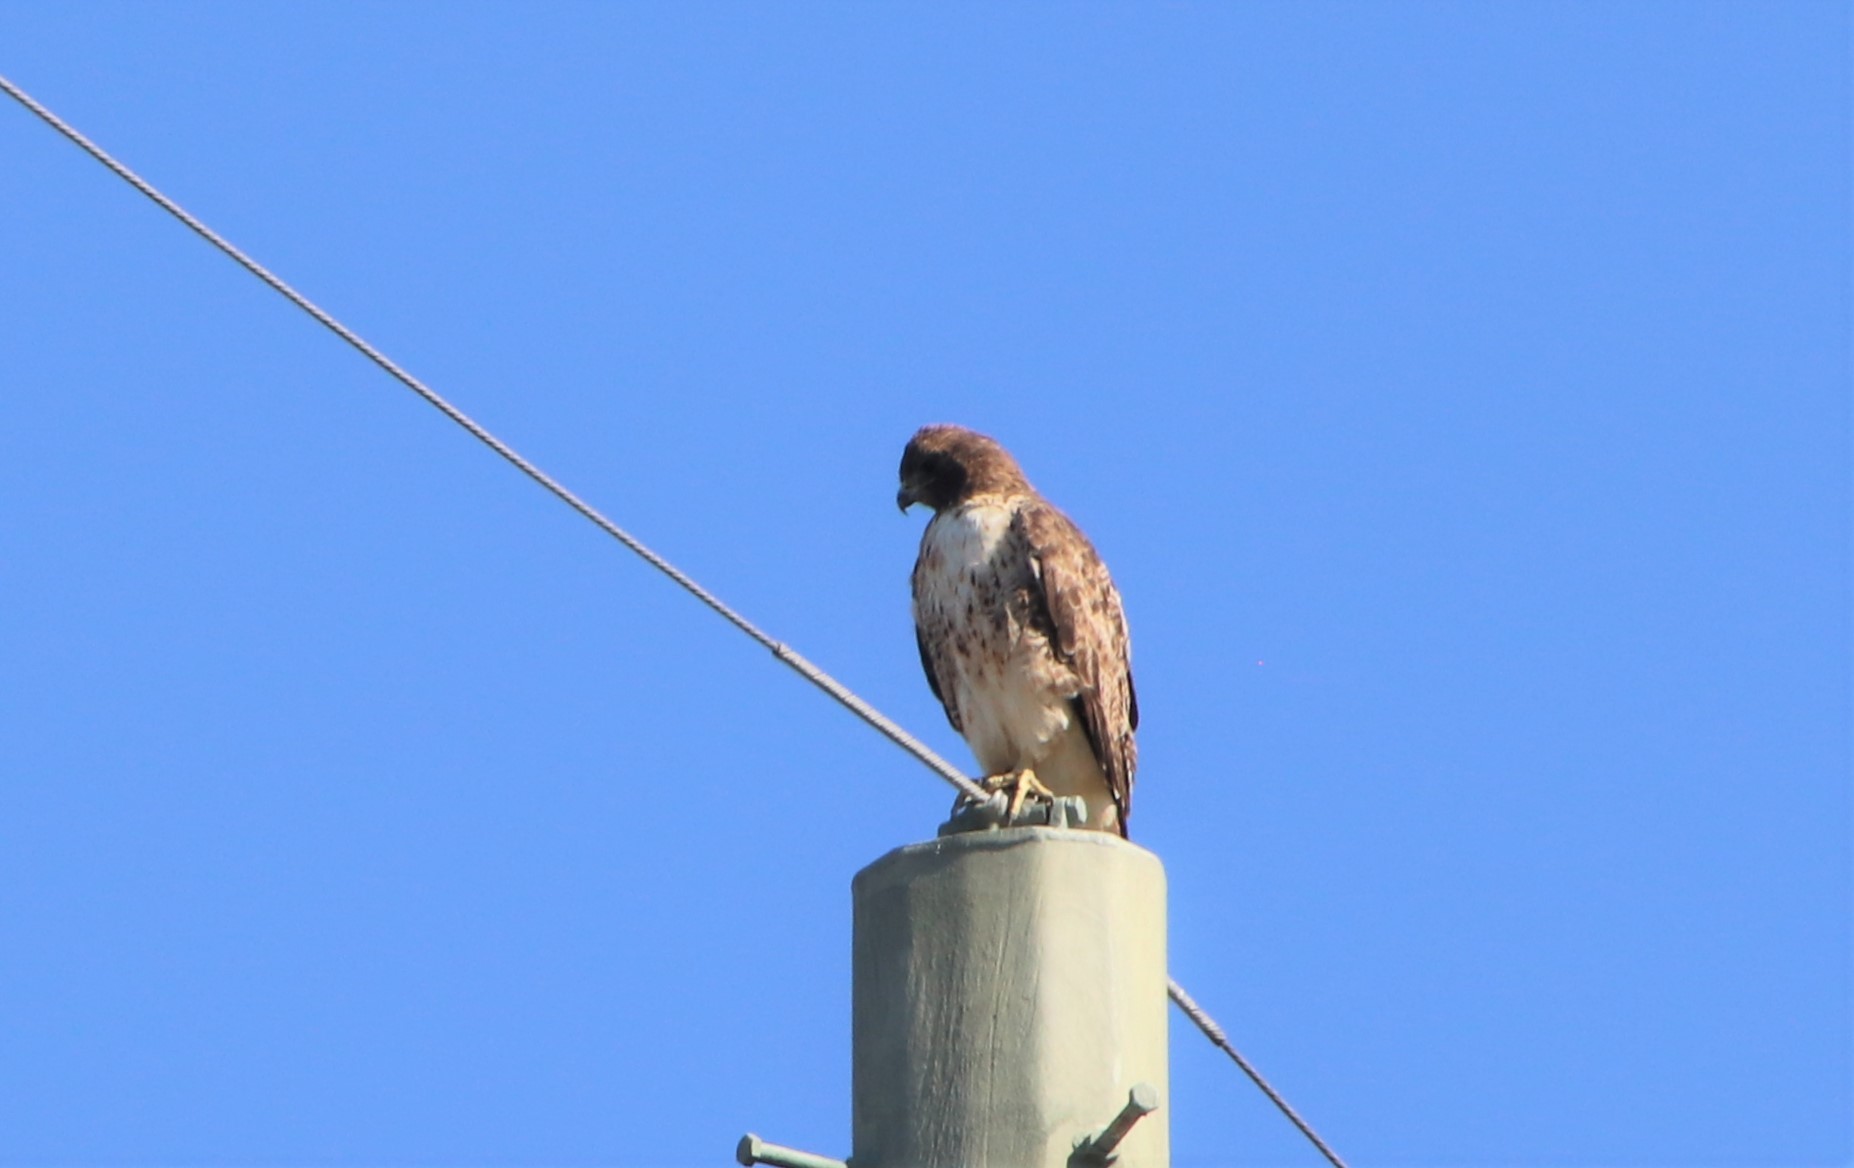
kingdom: Animalia
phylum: Chordata
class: Aves
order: Accipitriformes
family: Accipitridae
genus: Buteo
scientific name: Buteo jamaicensis
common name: Red-tailed hawk
